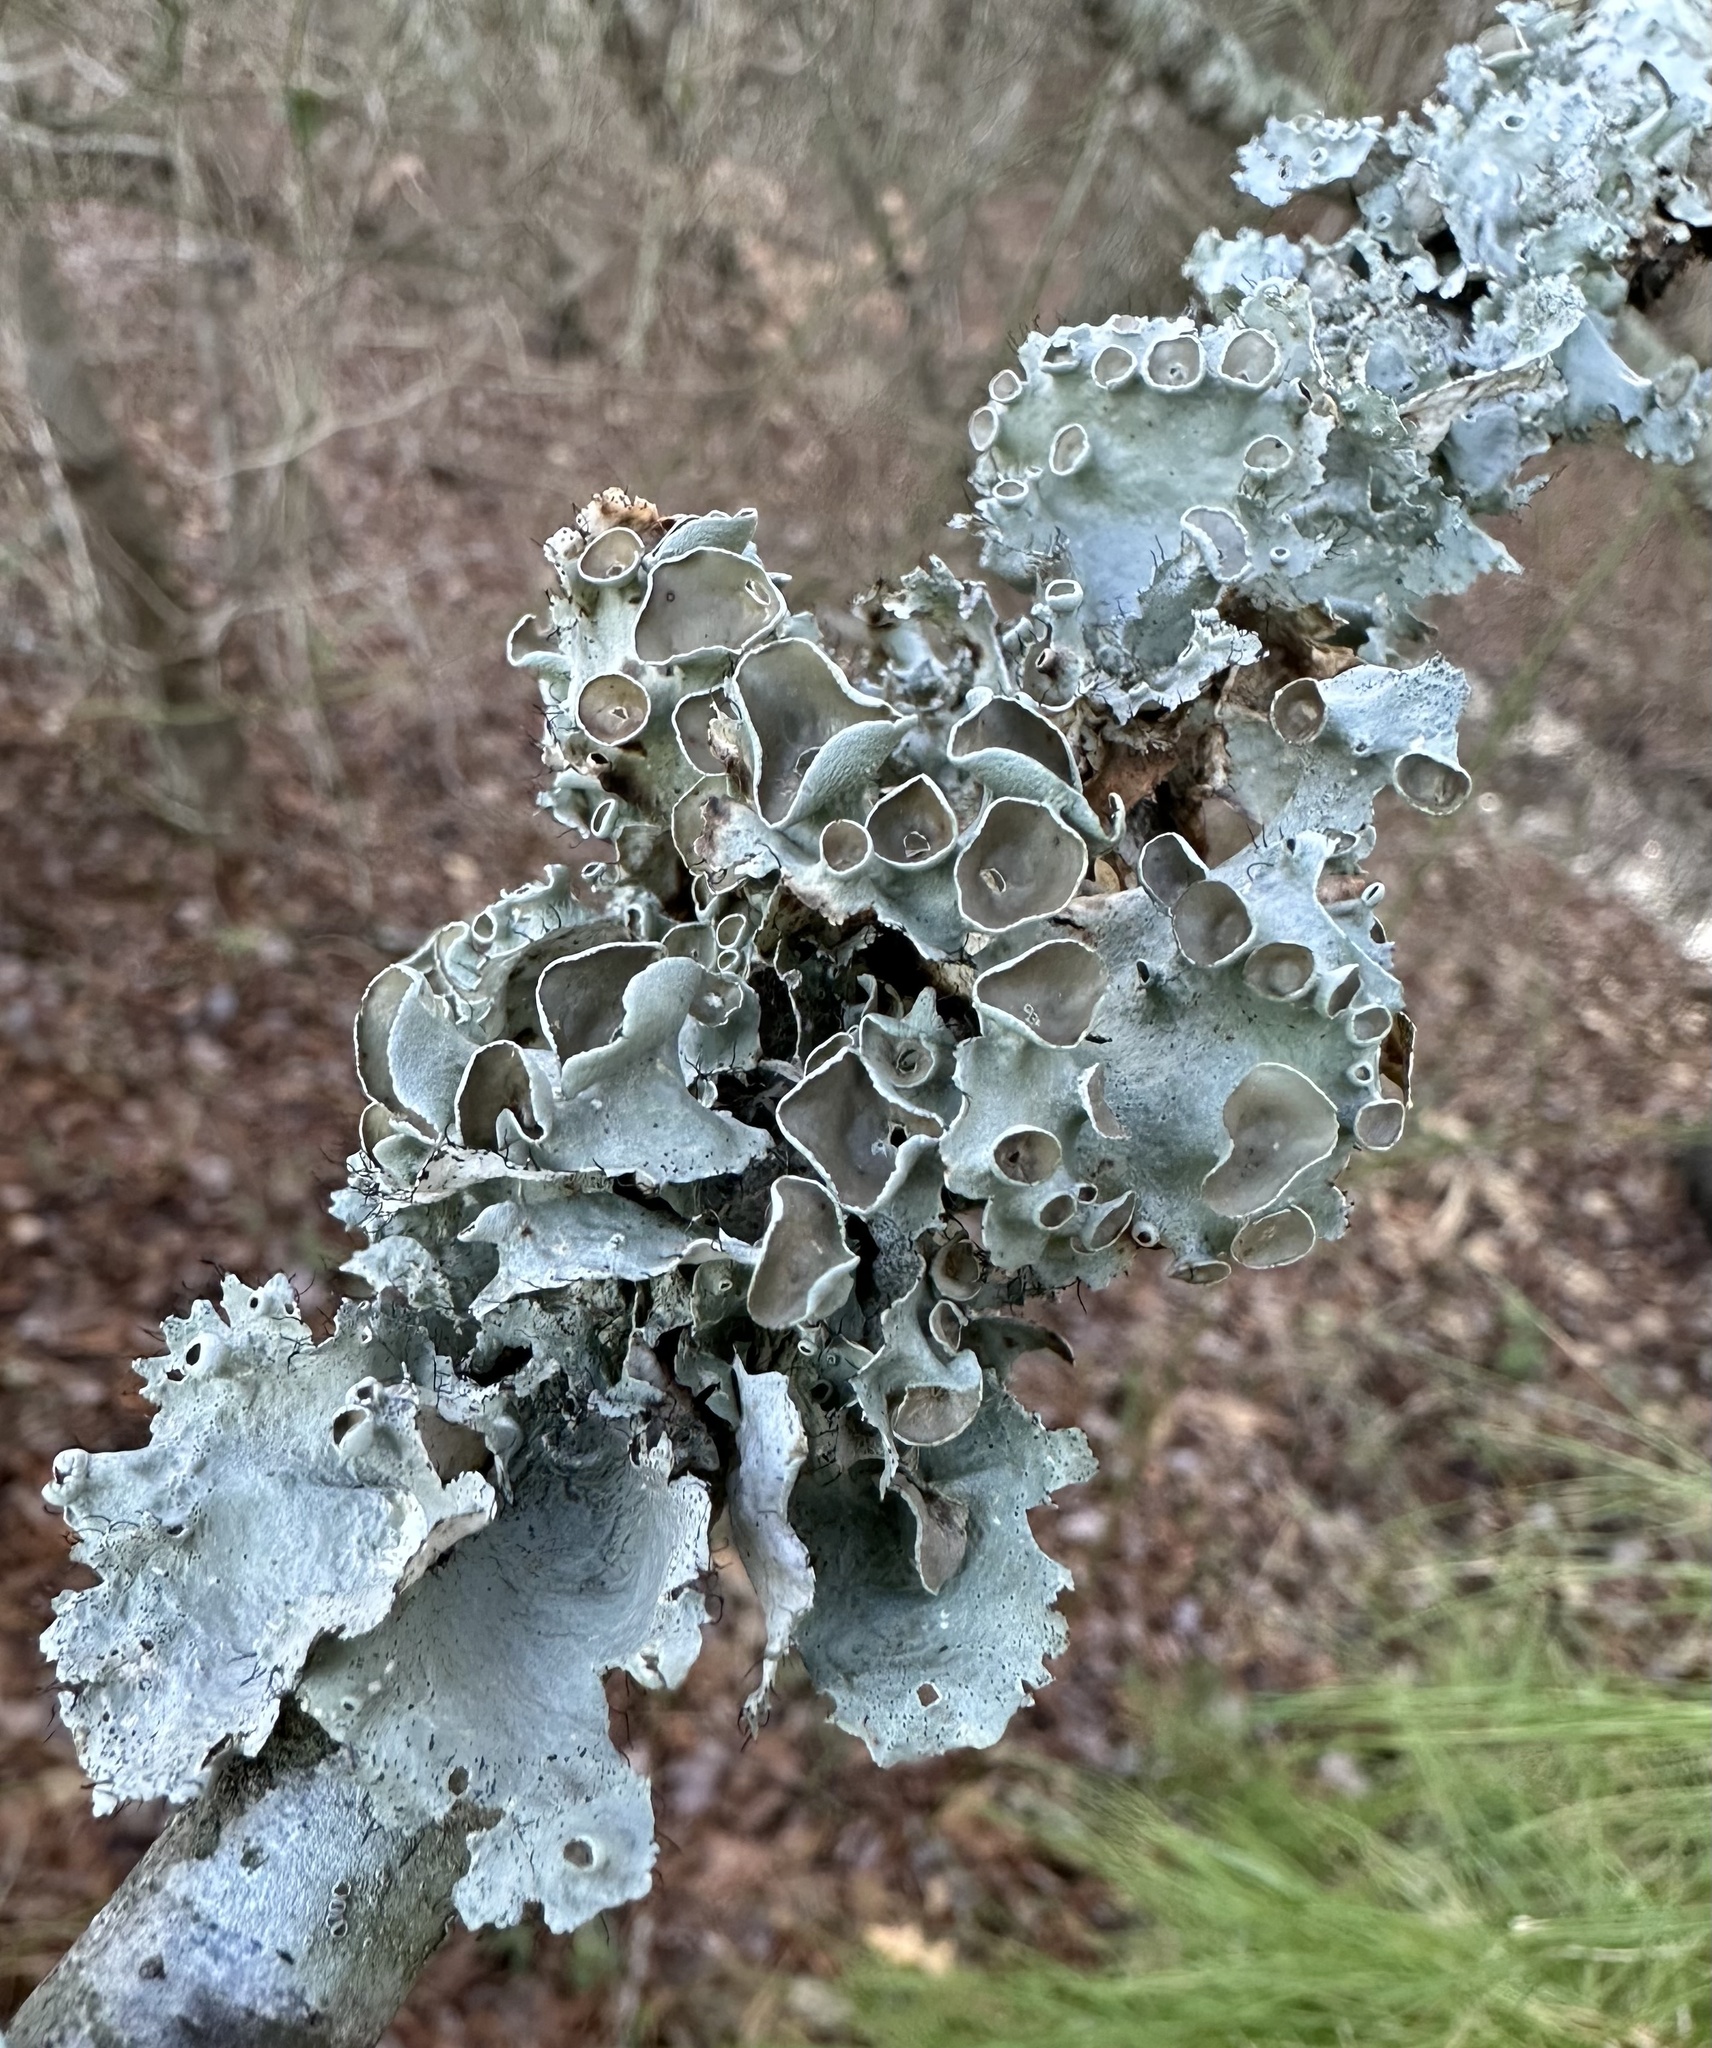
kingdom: Fungi
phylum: Ascomycota
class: Lecanoromycetes
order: Lecanorales
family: Parmeliaceae
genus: Parmotrema
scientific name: Parmotrema perforatum
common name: Perforated ruffle lichen
